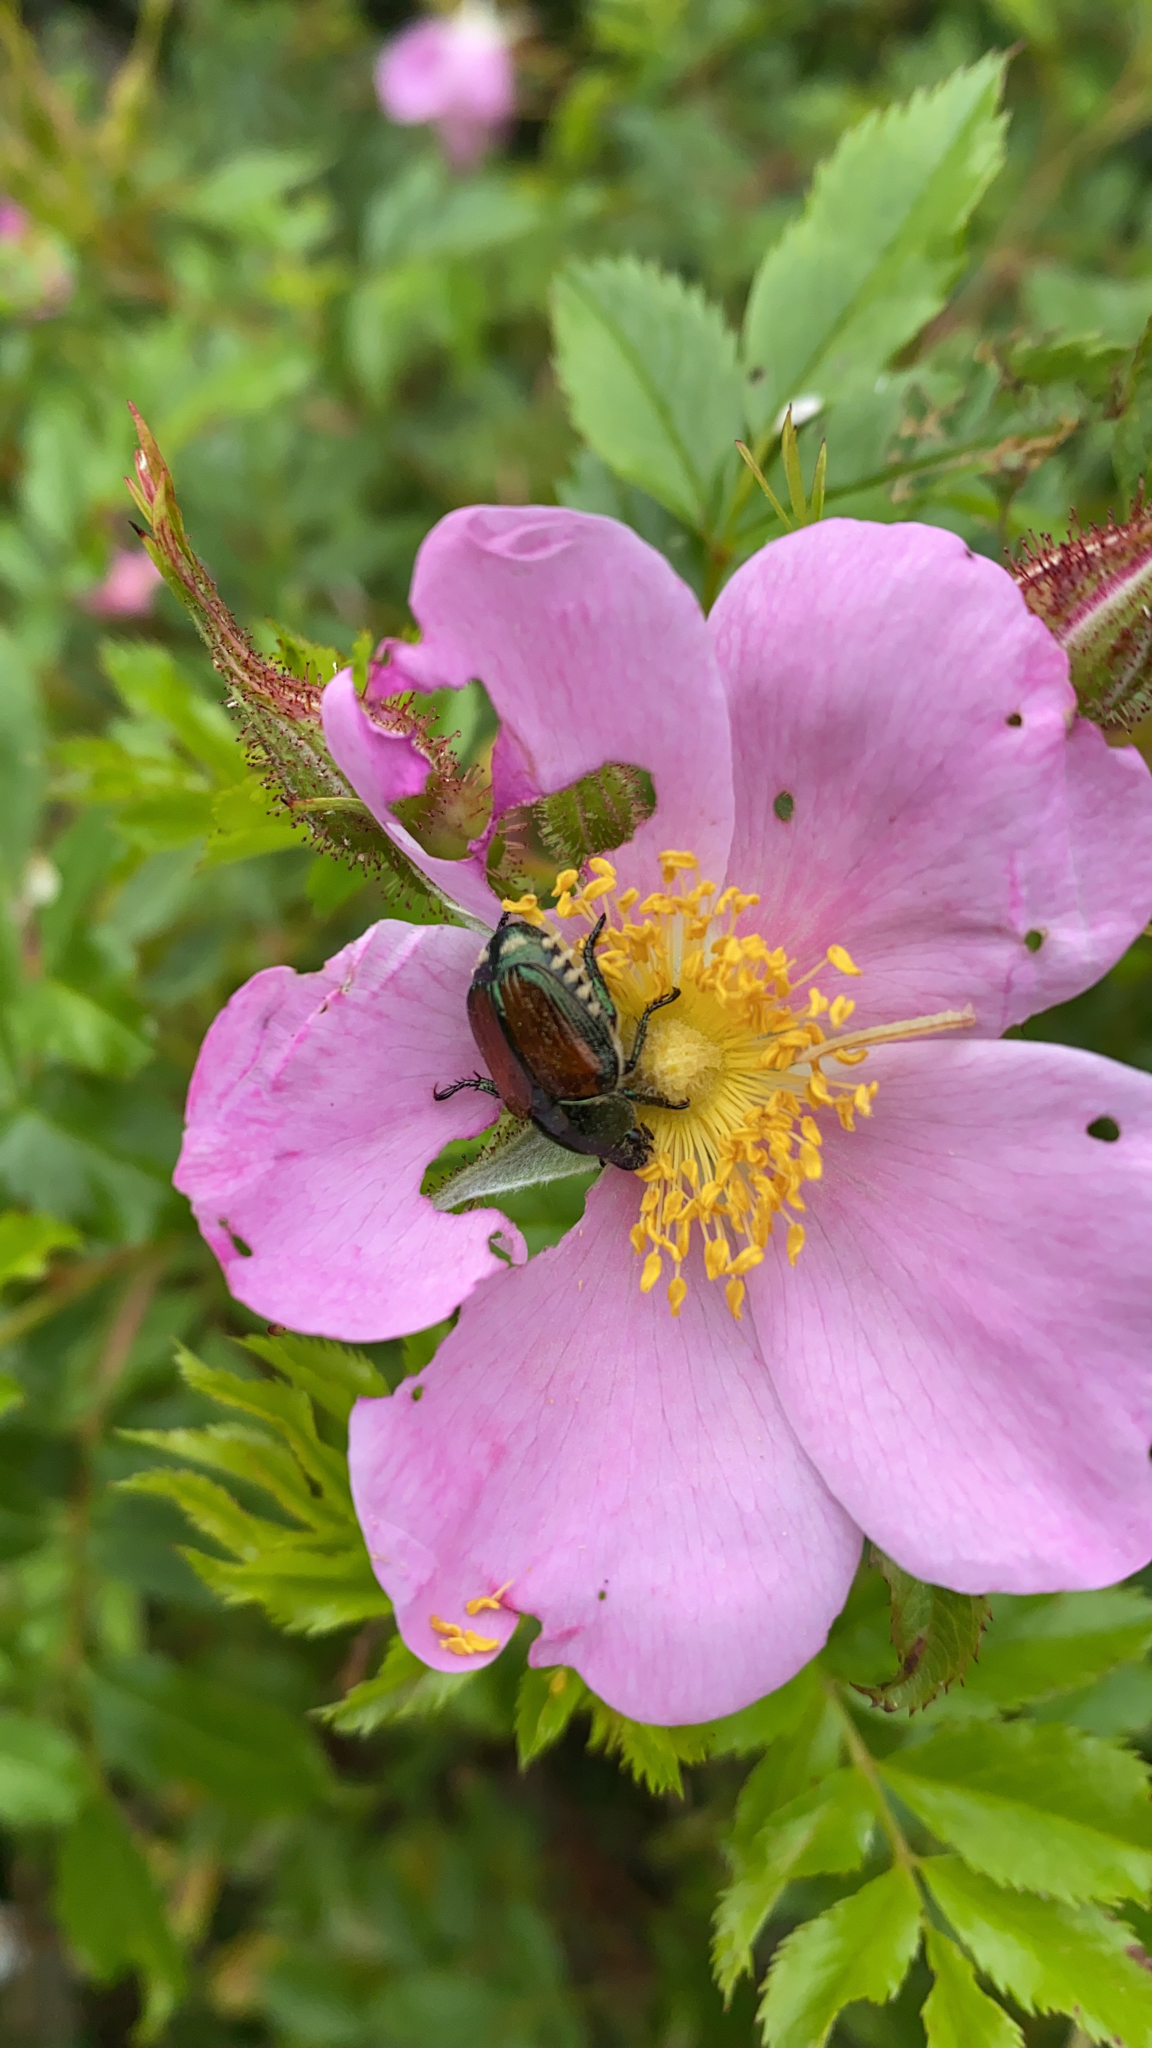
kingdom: Animalia
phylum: Arthropoda
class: Insecta
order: Coleoptera
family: Scarabaeidae
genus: Popillia
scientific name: Popillia japonica
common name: Japanese beetle
